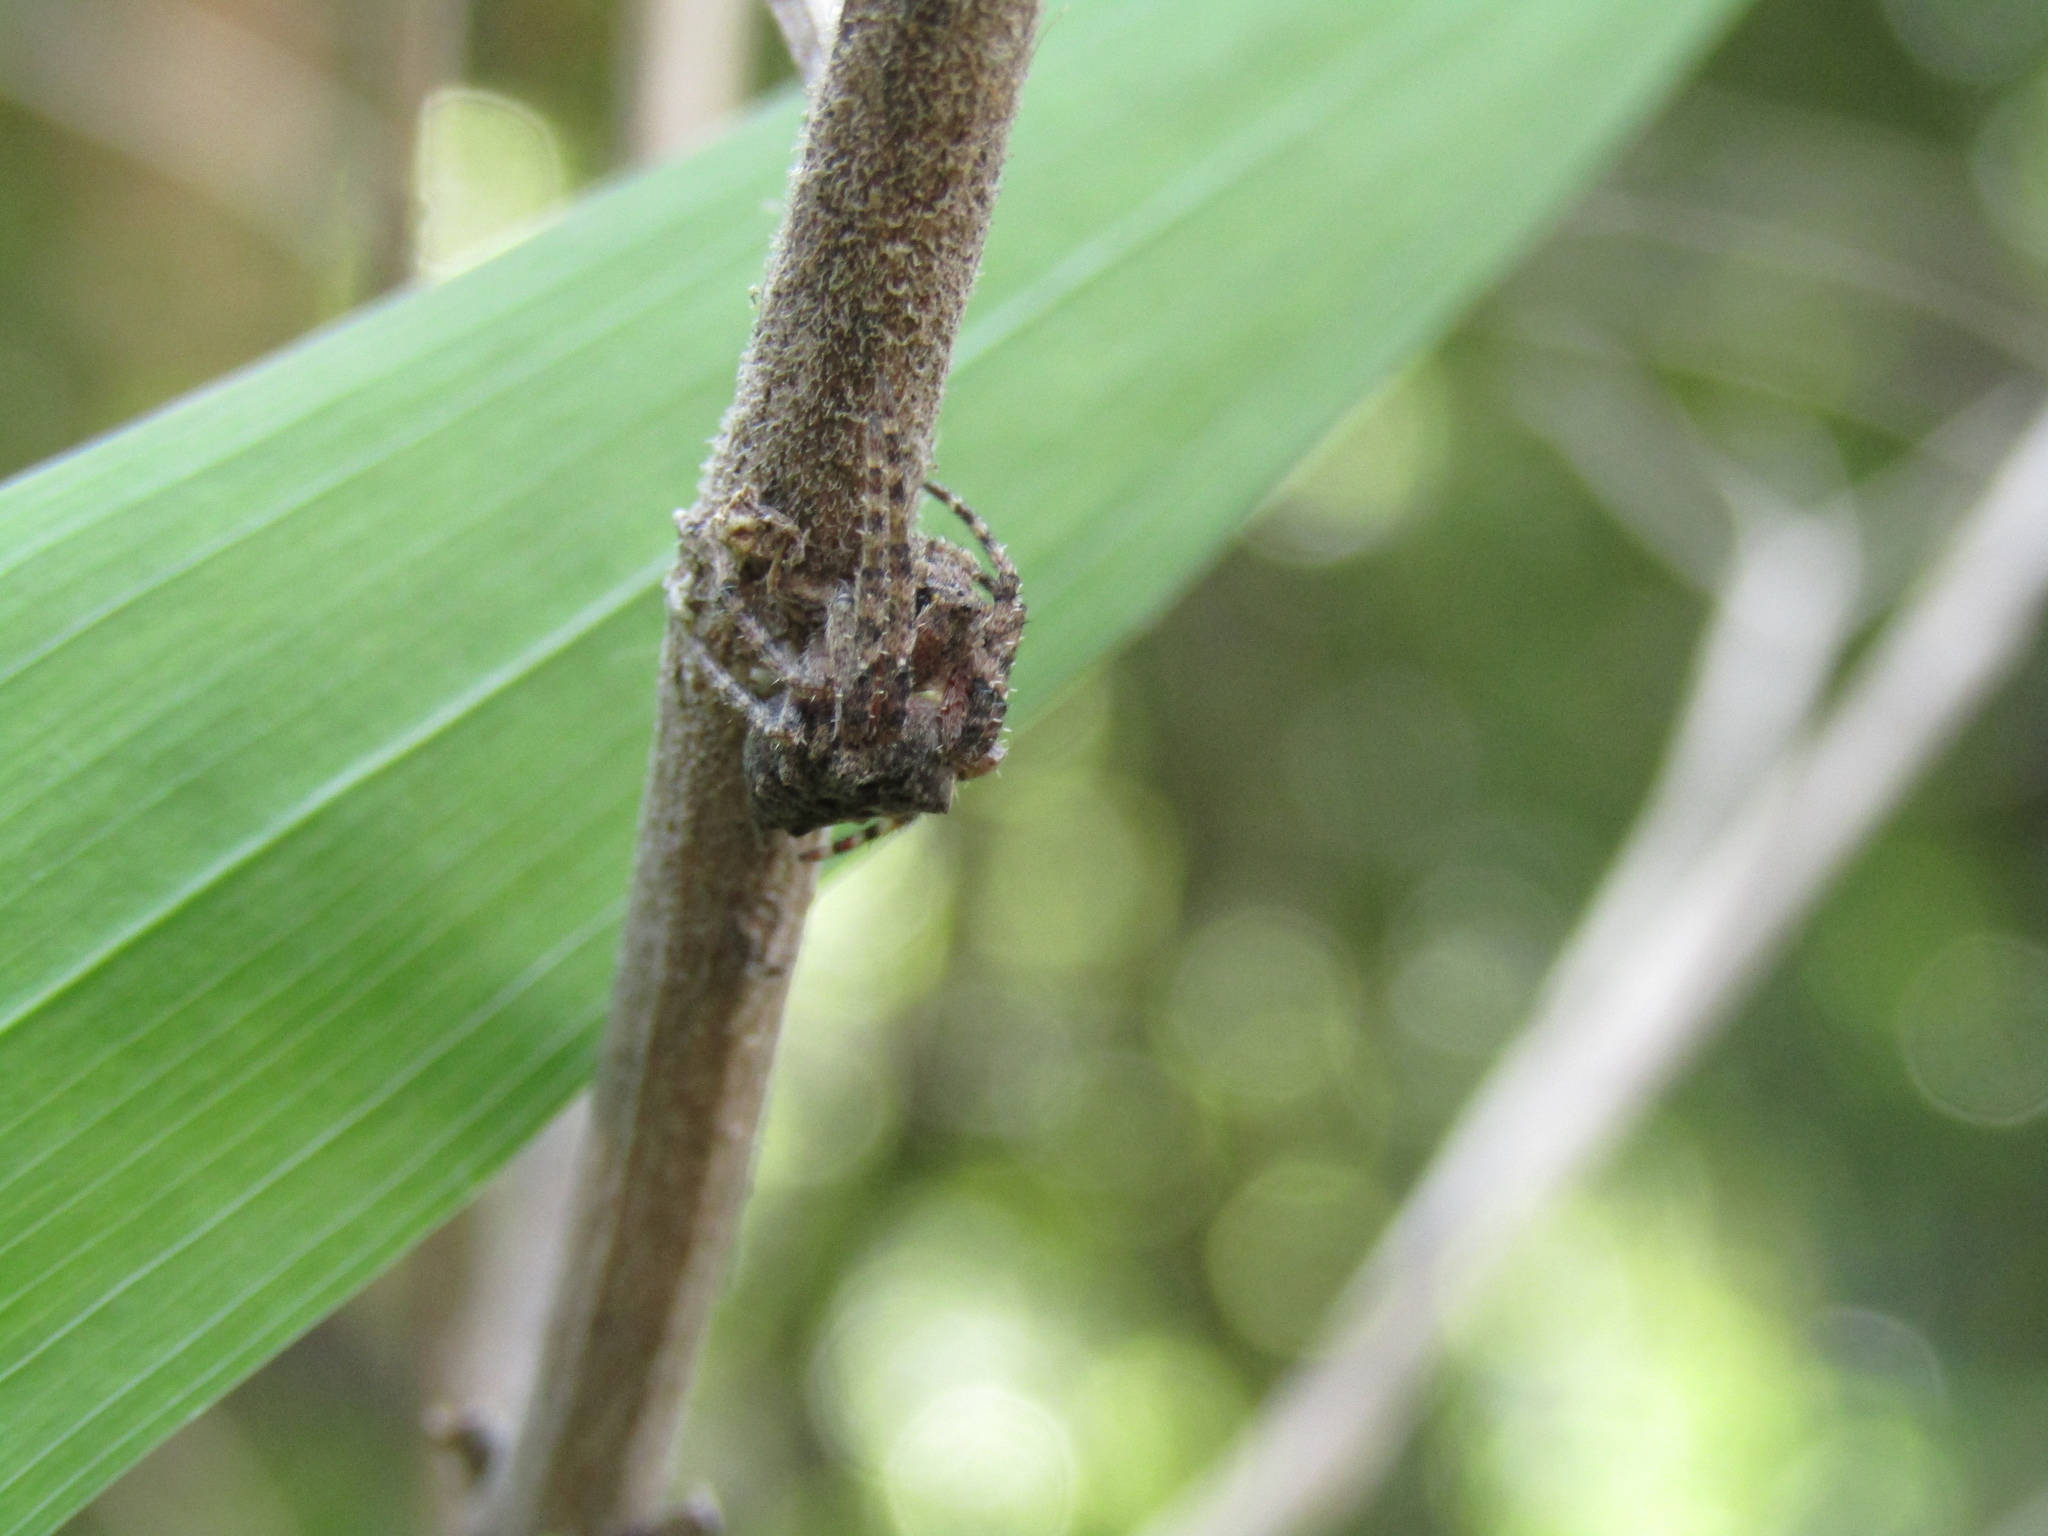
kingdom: Animalia
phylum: Arthropoda
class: Arachnida
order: Araneae
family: Araneidae
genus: Parawixia
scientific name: Parawixia audax
